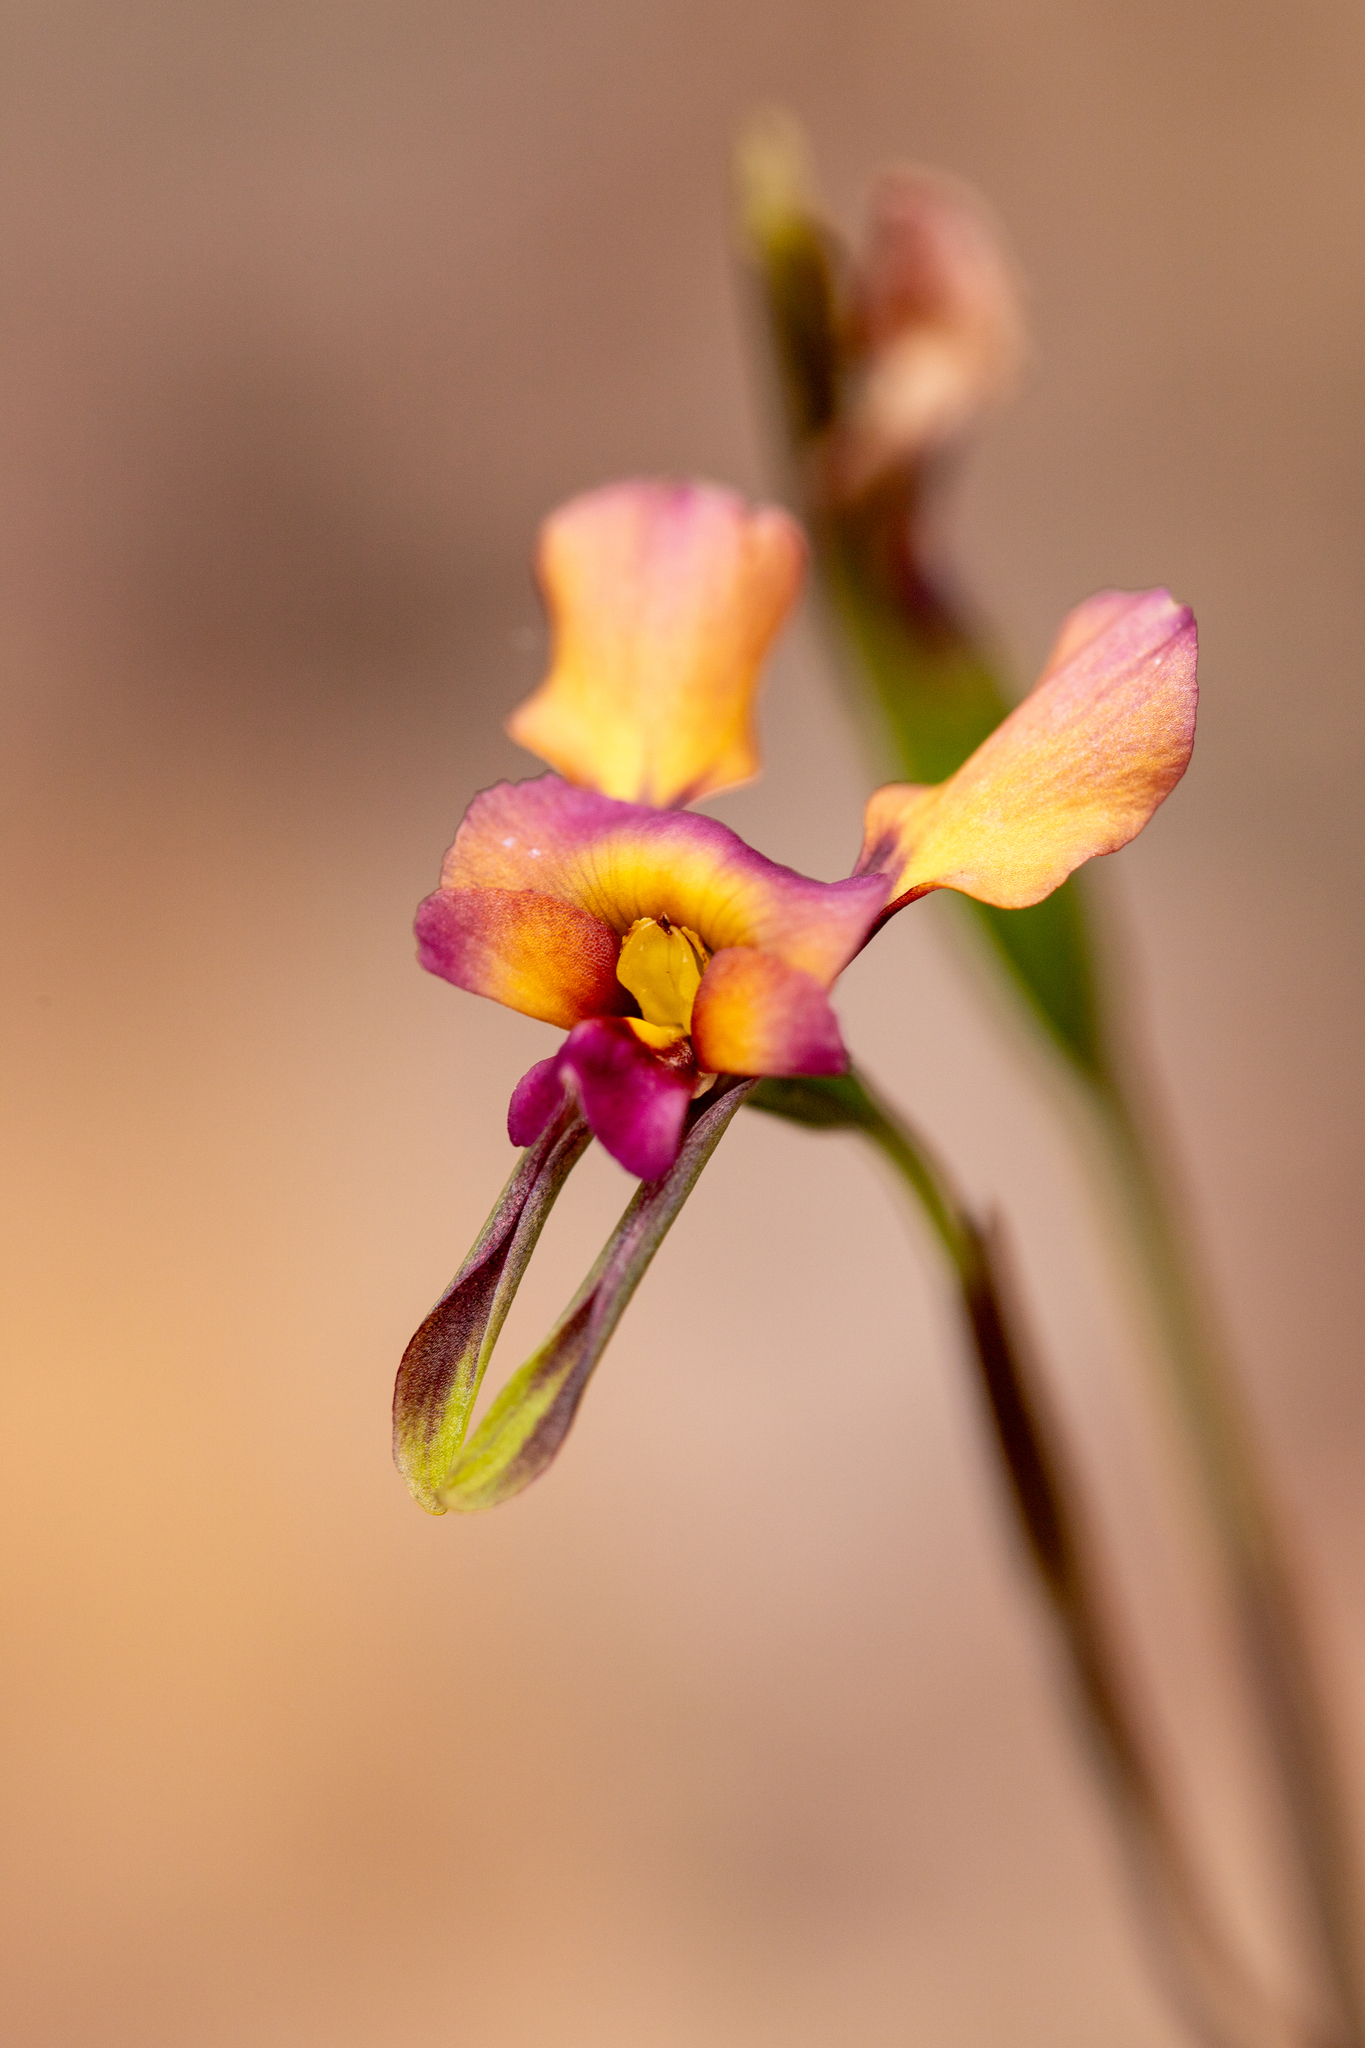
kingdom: Plantae
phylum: Tracheophyta
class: Liliopsida
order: Asparagales
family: Orchidaceae
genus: Diuris
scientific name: Diuris longifolia
